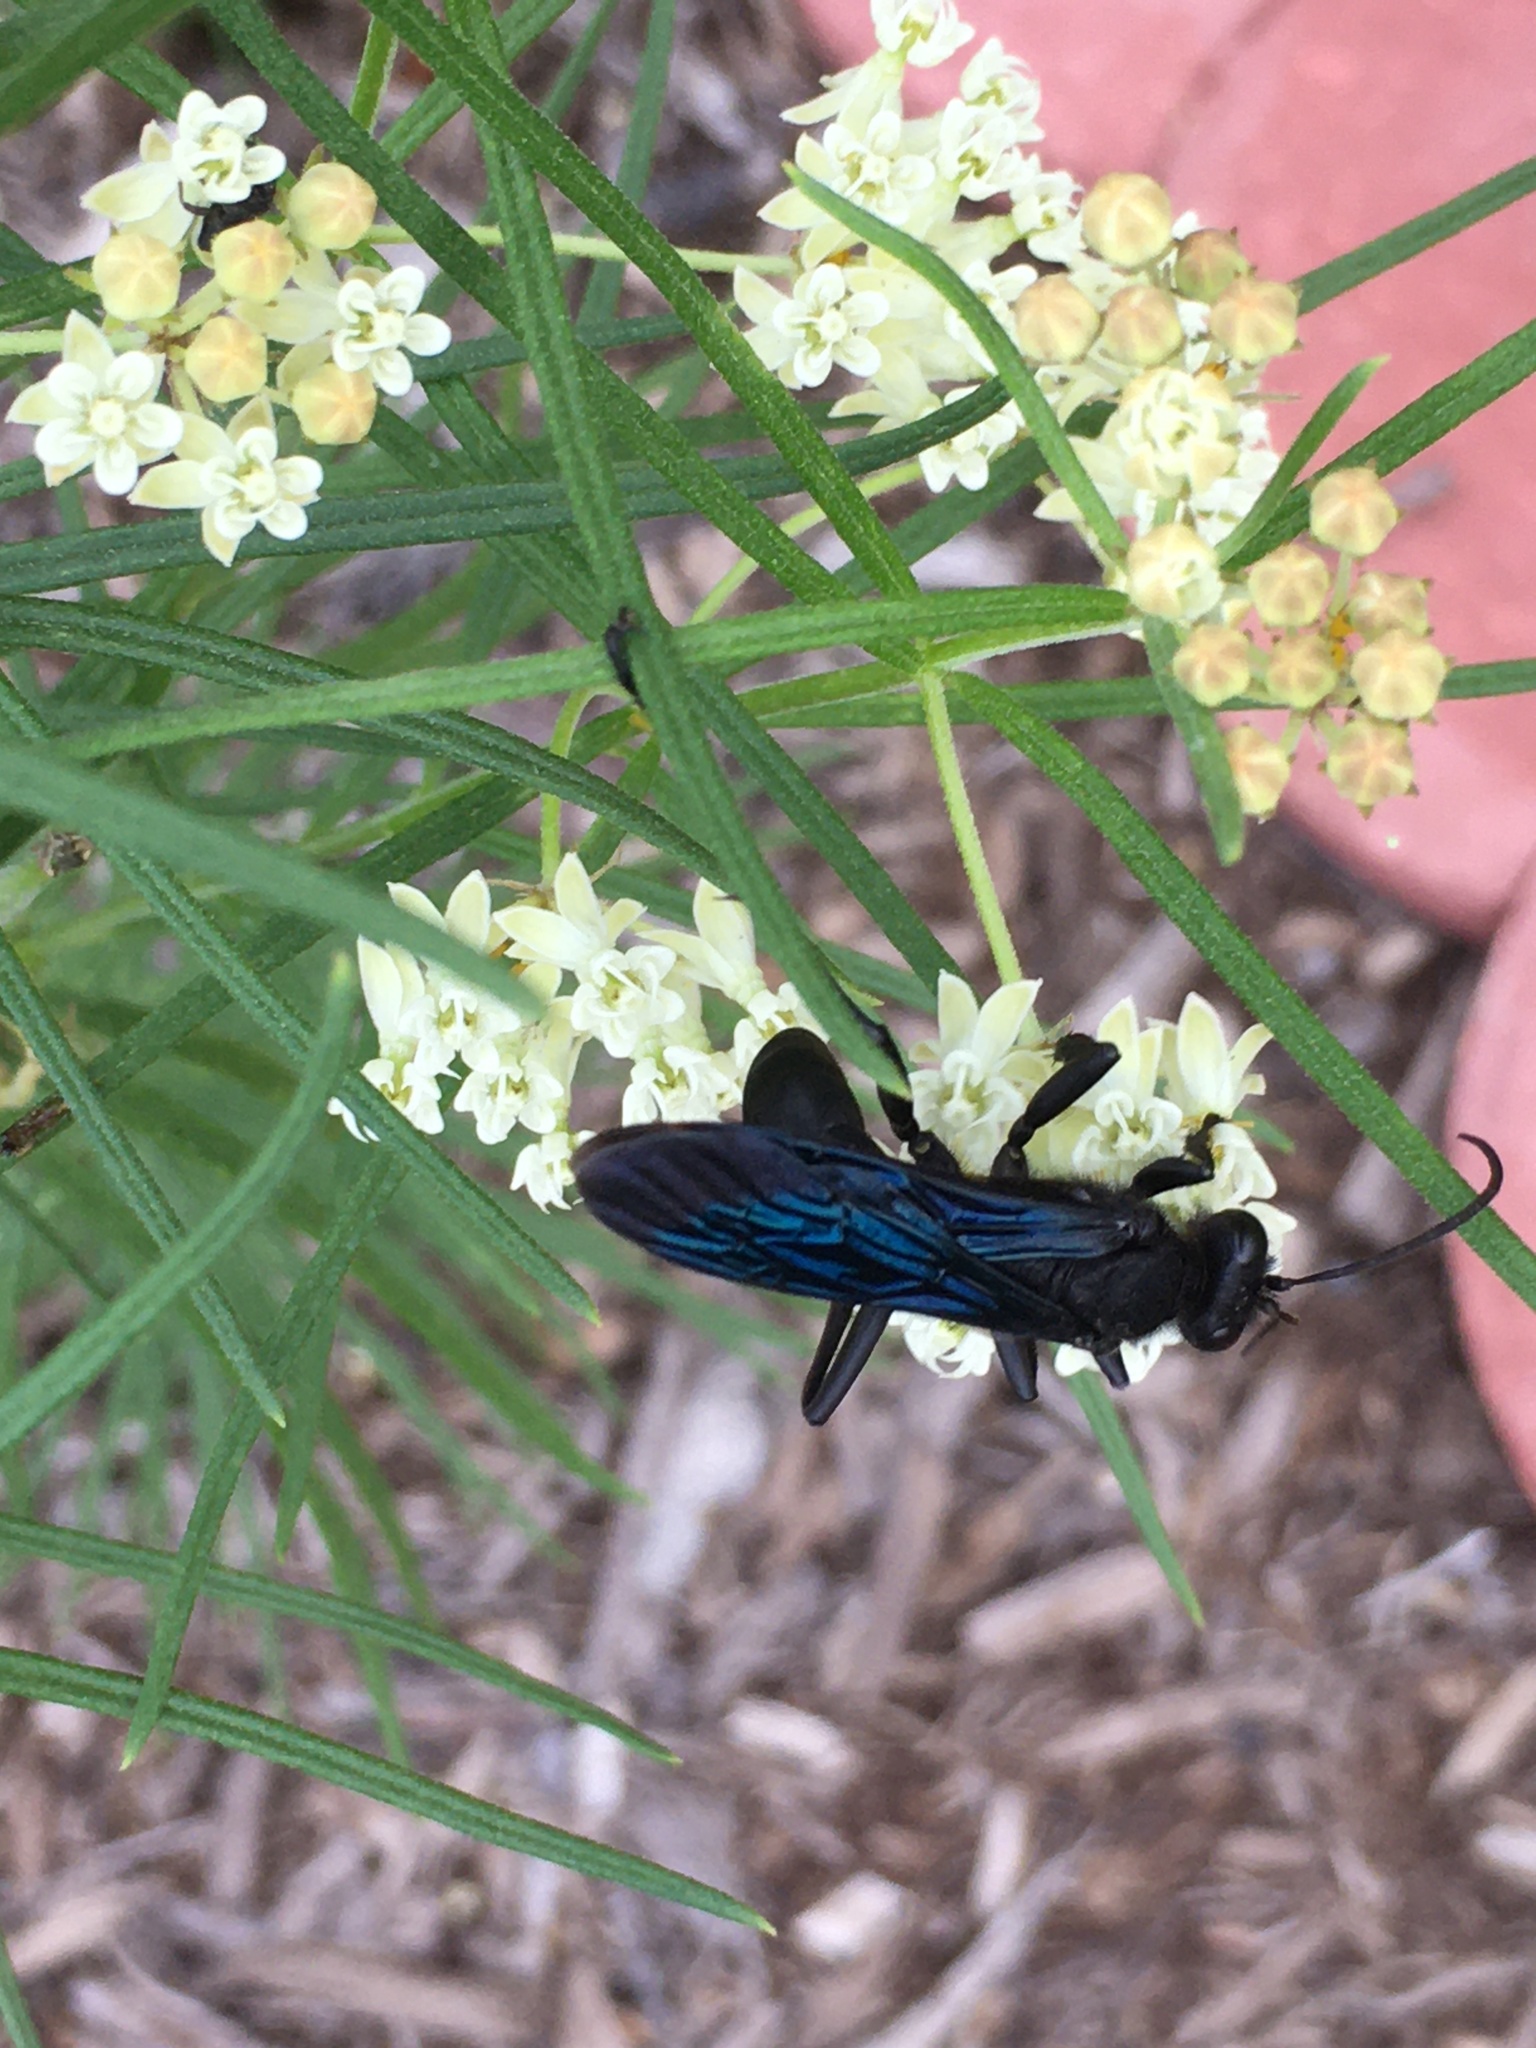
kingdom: Animalia
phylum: Arthropoda
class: Insecta
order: Hymenoptera
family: Sphecidae
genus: Sphex
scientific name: Sphex pensylvanicus
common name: Great black digger wasp
